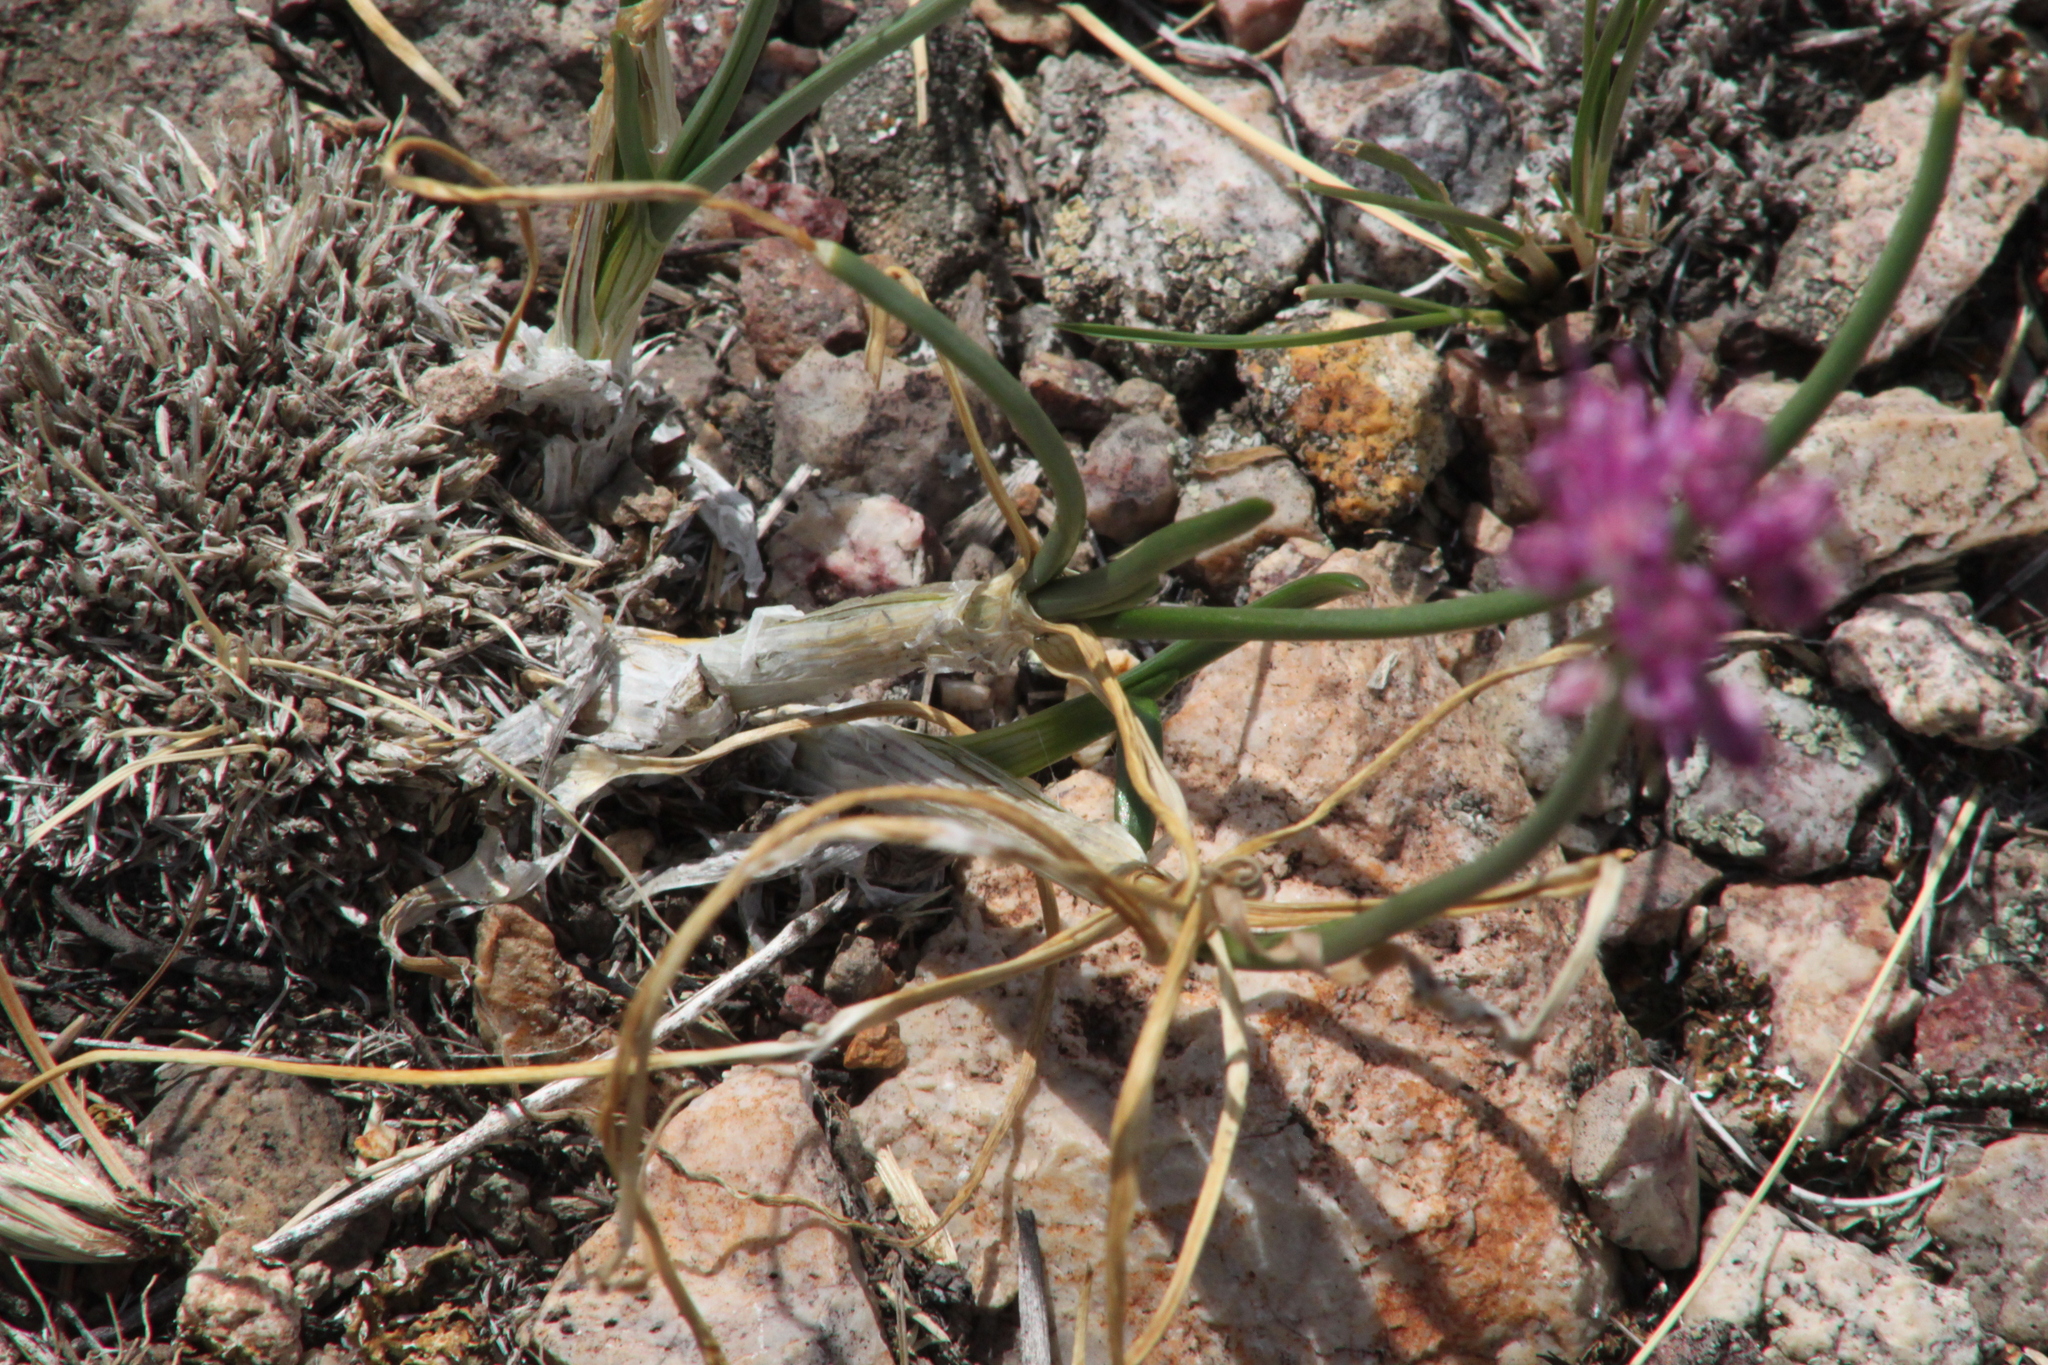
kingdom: Plantae
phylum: Tracheophyta
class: Liliopsida
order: Asparagales
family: Amaryllidaceae
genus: Allium
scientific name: Allium montanostepposum
